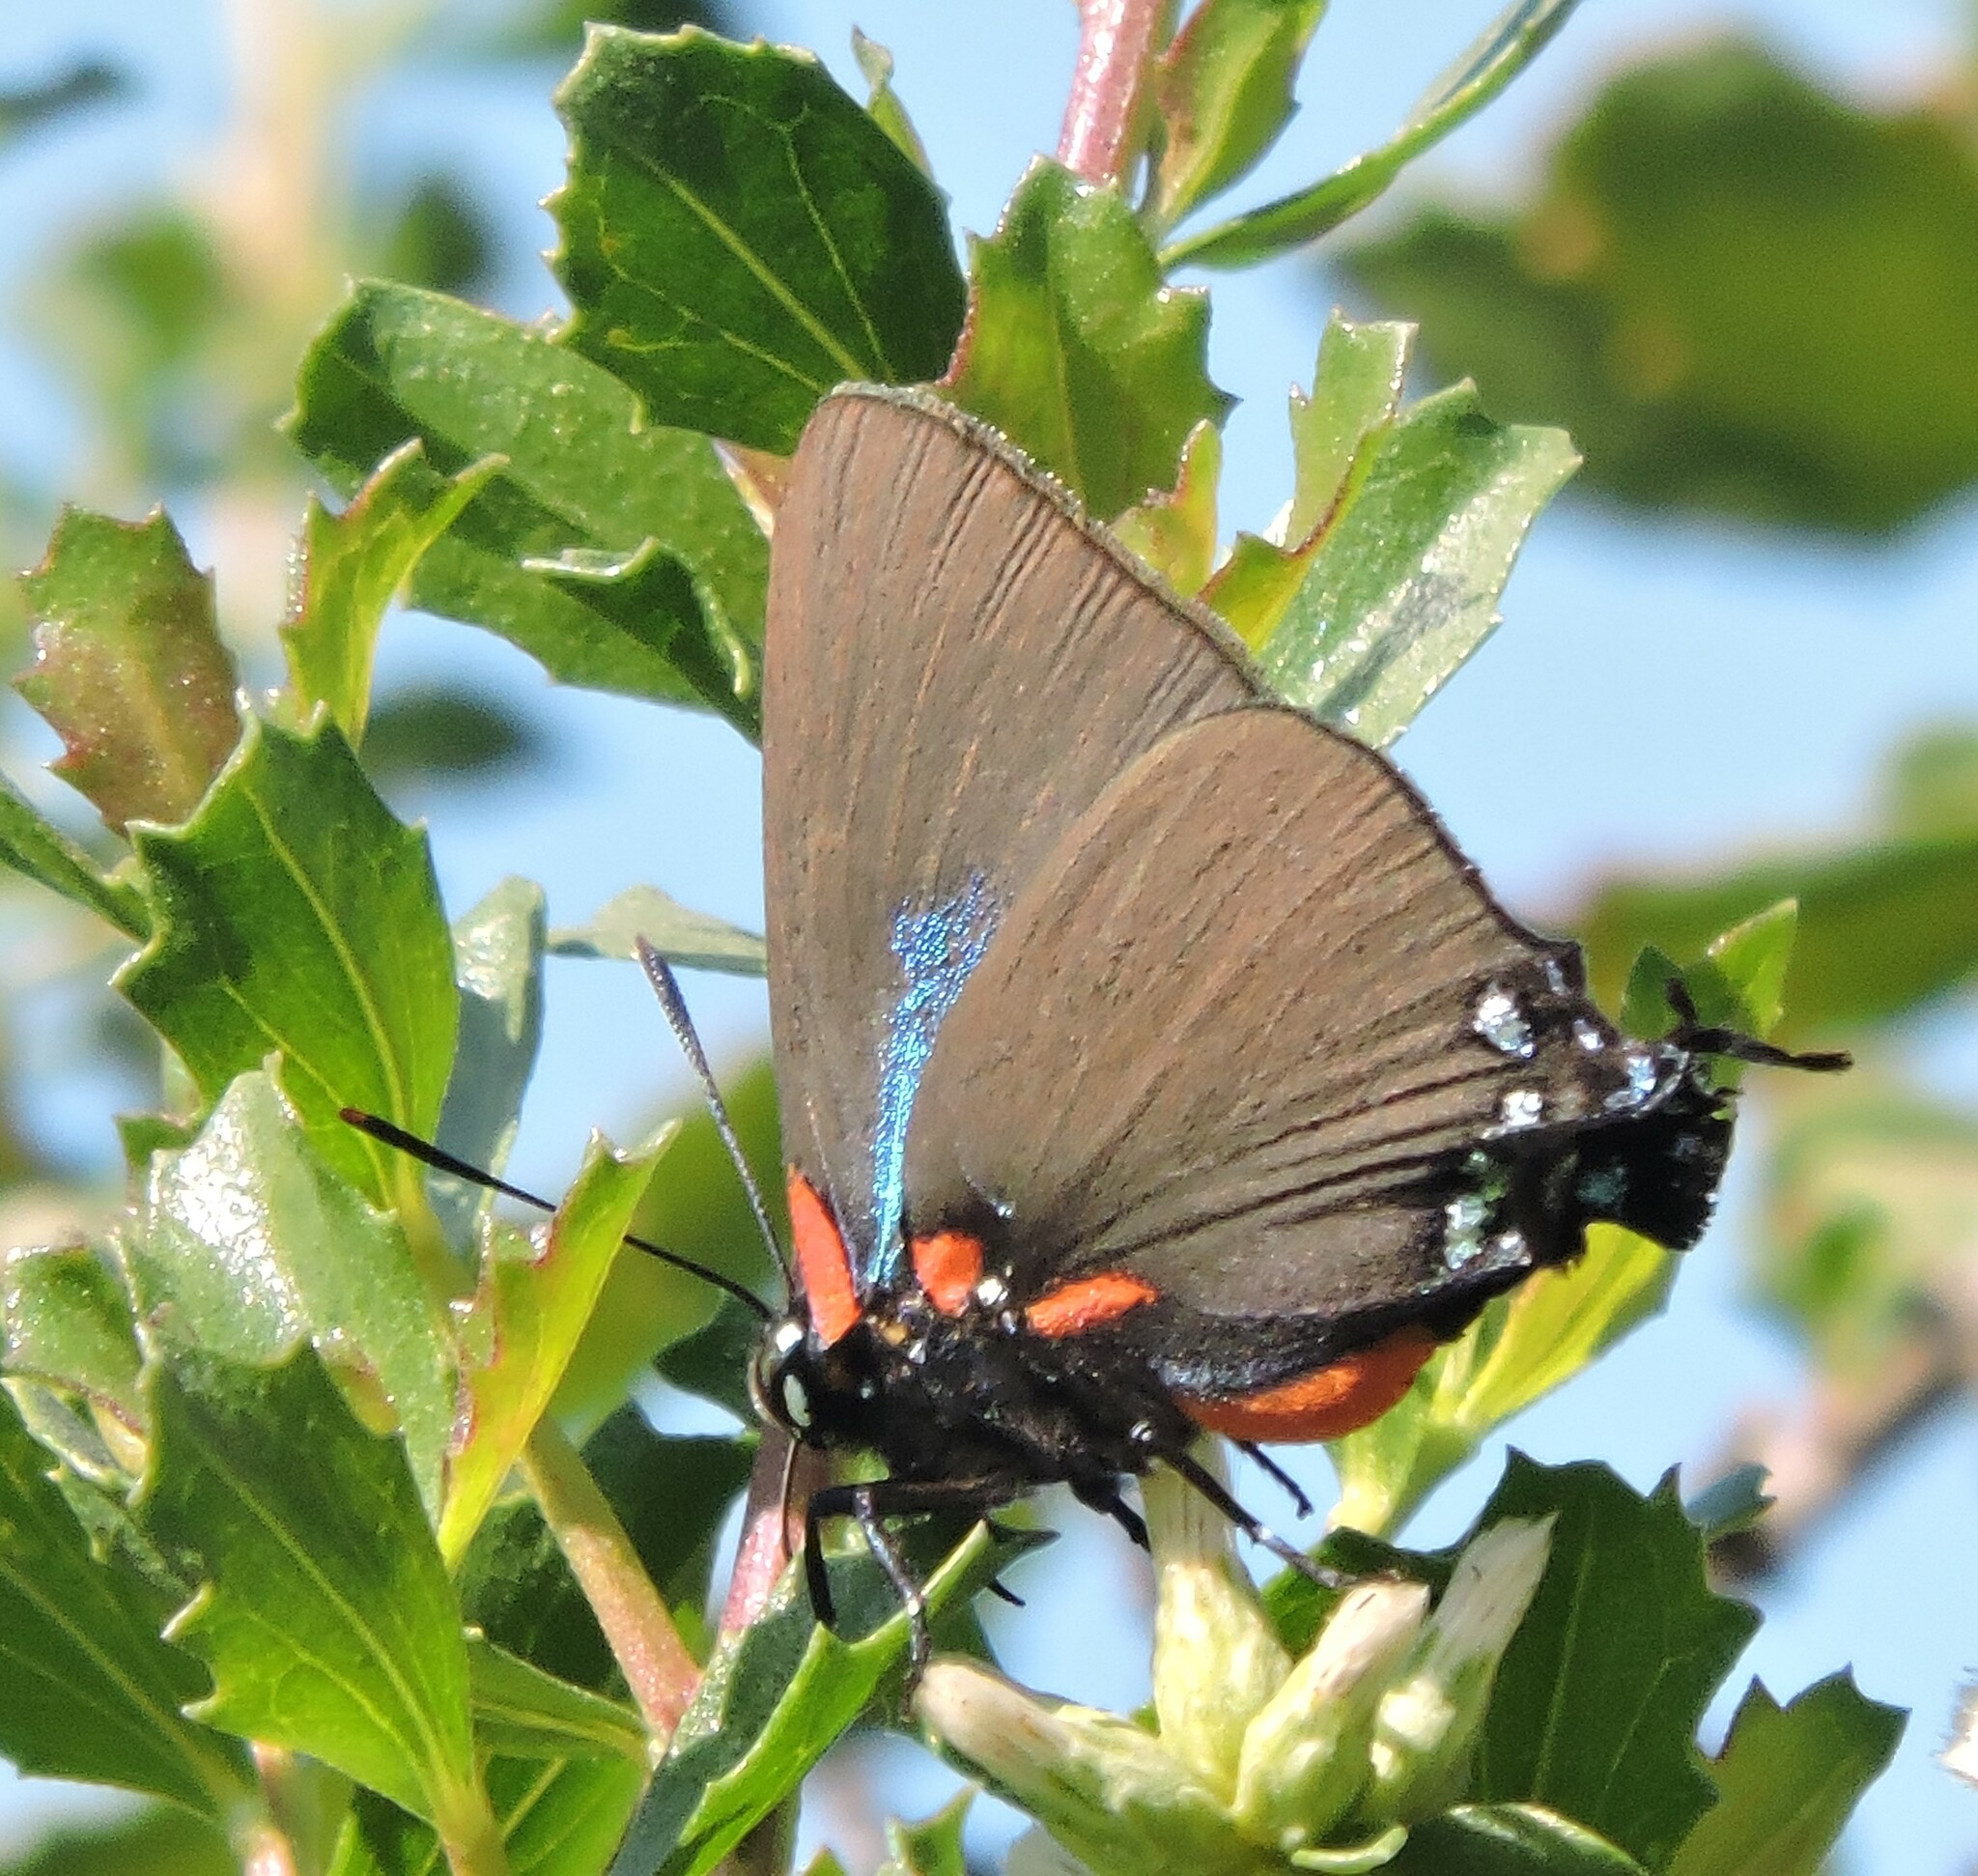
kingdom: Animalia
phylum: Arthropoda
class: Insecta
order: Lepidoptera
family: Lycaenidae
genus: Atlides
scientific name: Atlides halesus
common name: Great purple hairstreak
